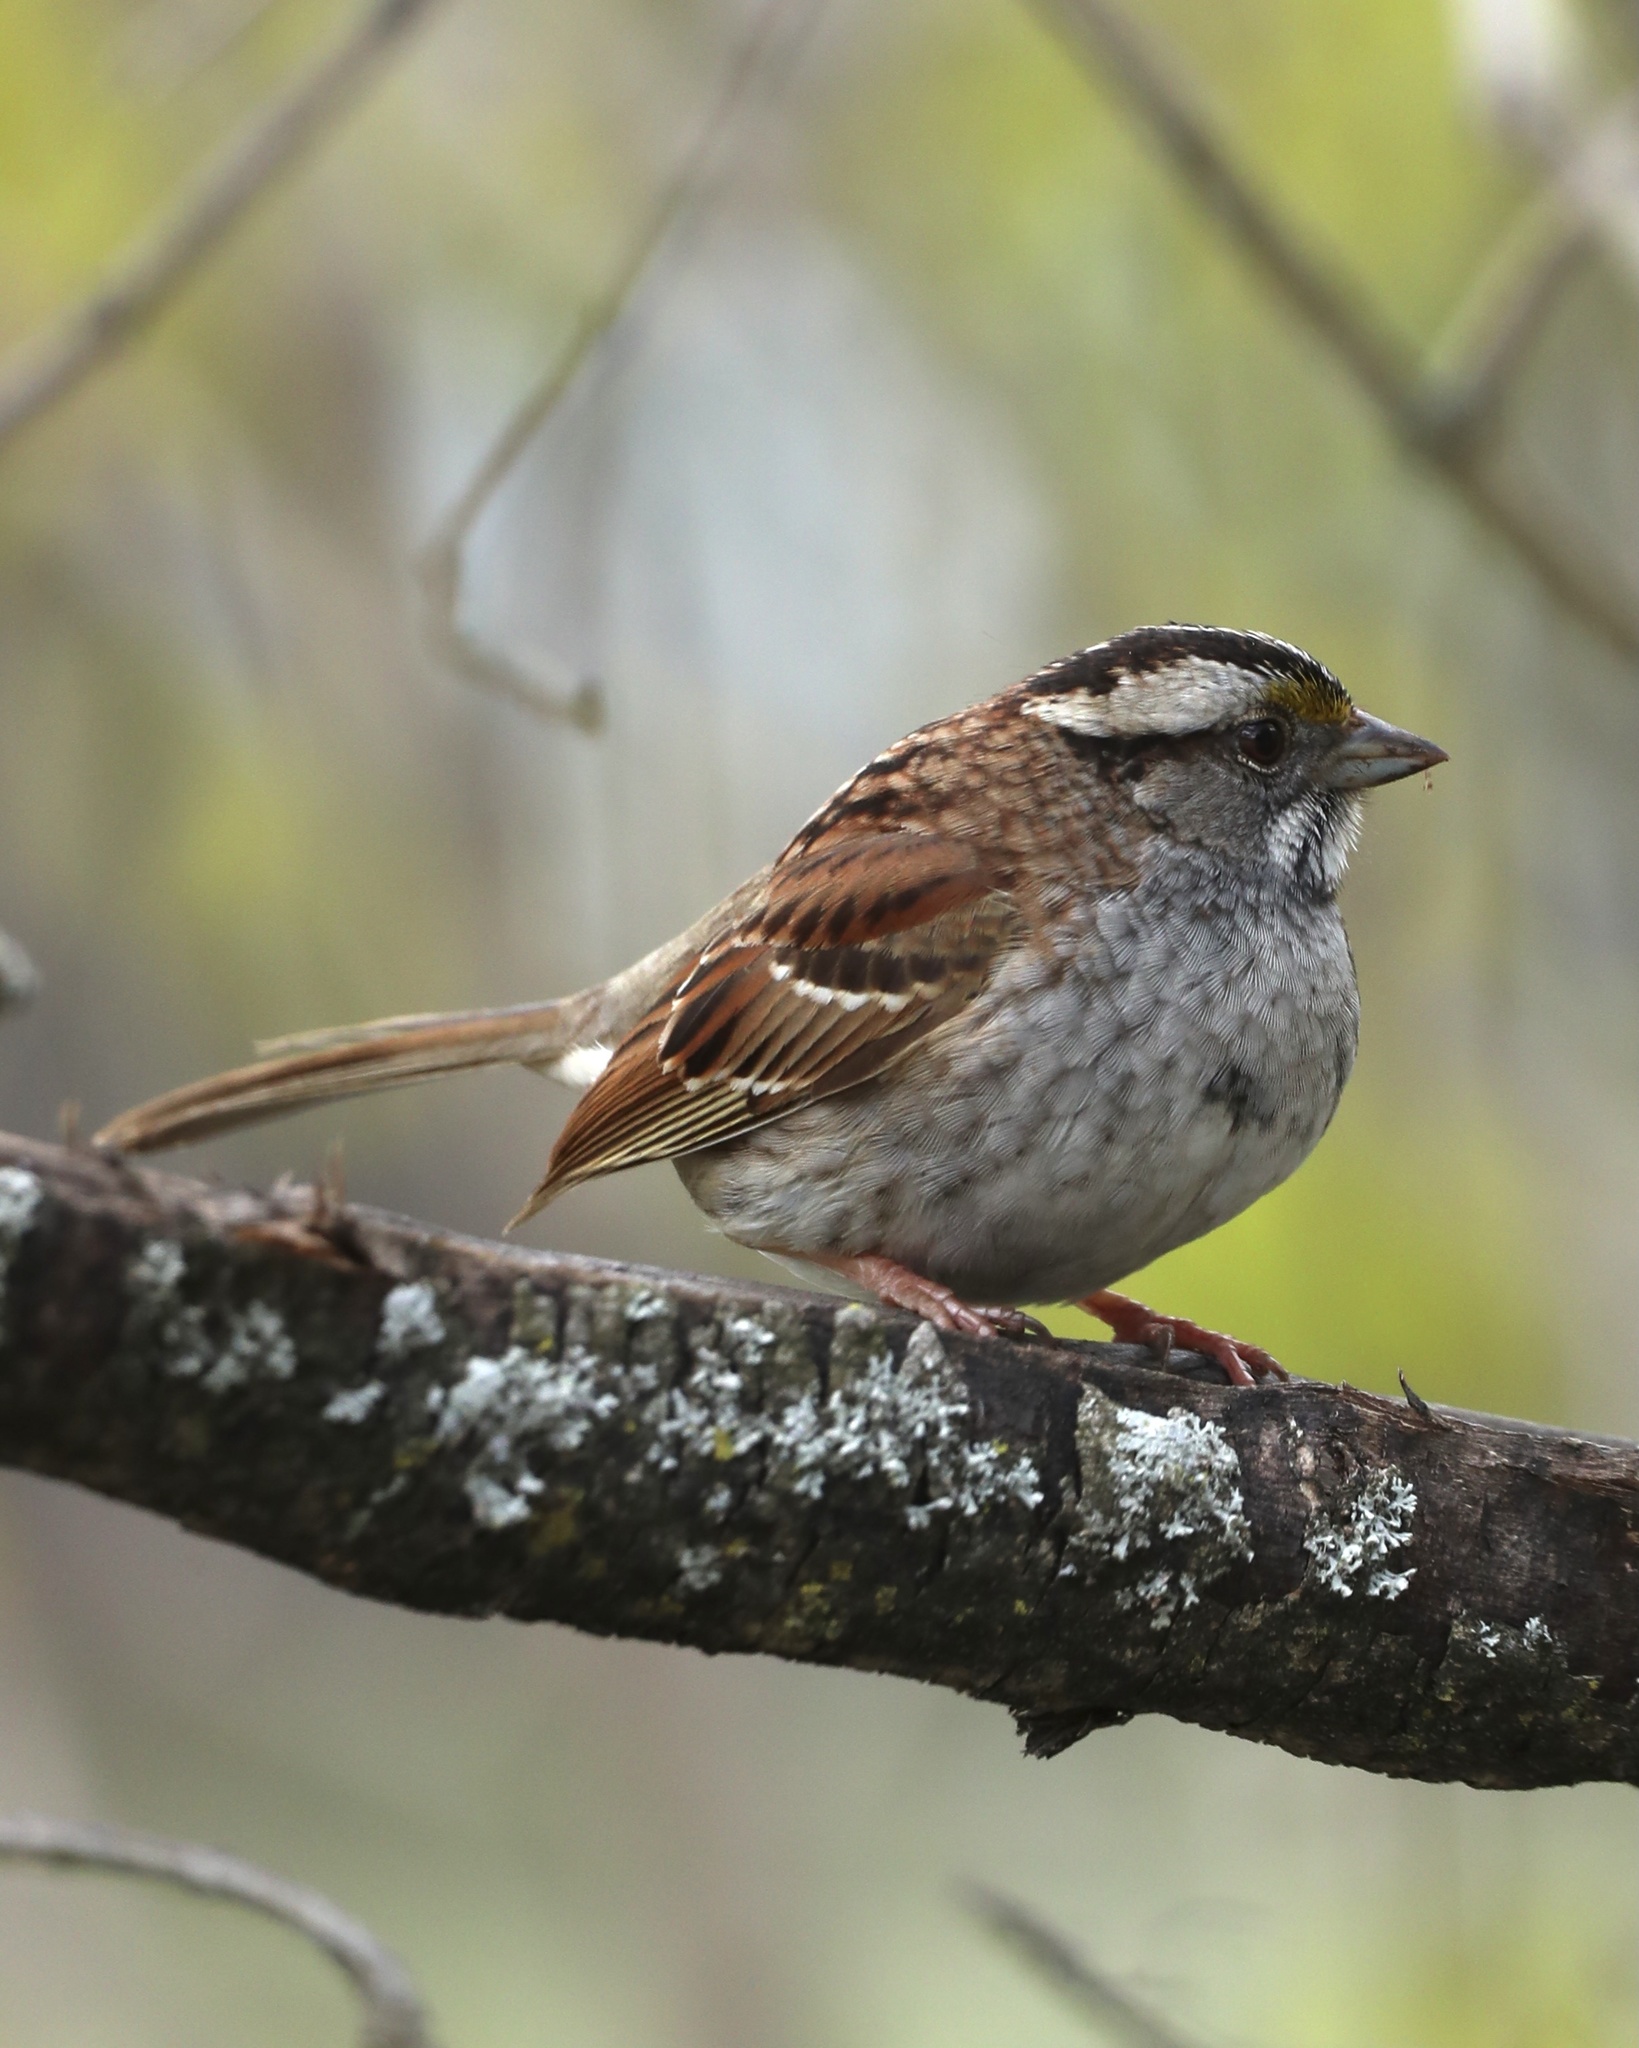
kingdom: Animalia
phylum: Chordata
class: Aves
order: Passeriformes
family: Passerellidae
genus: Zonotrichia
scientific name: Zonotrichia albicollis
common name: White-throated sparrow
